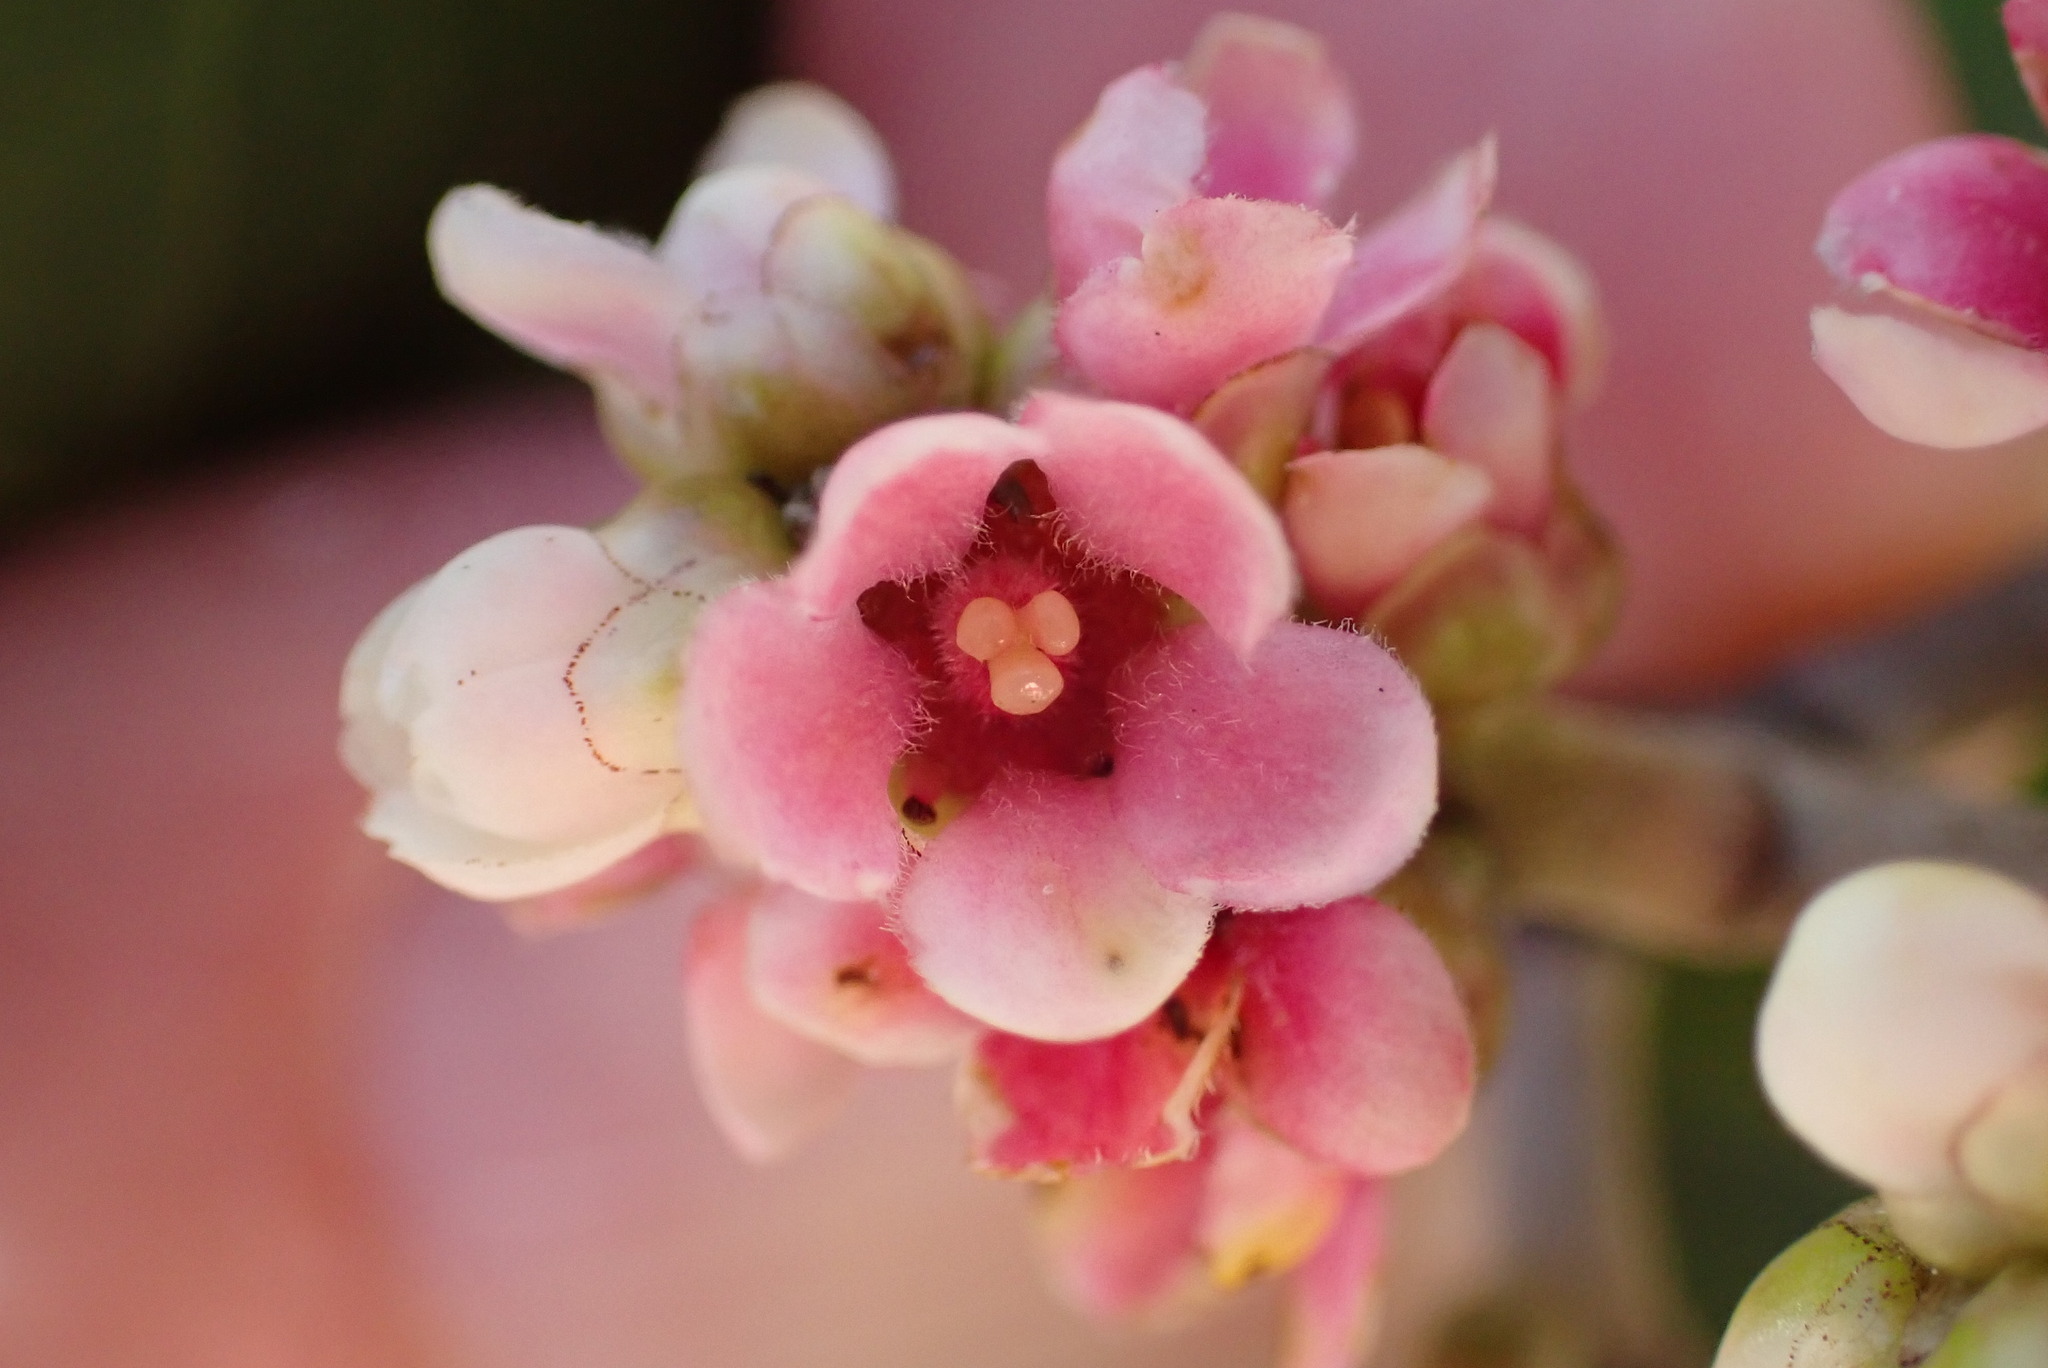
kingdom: Plantae
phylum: Tracheophyta
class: Magnoliopsida
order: Sapindales
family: Anacardiaceae
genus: Rhus
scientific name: Rhus integrifolia
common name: Lemonade sumac
